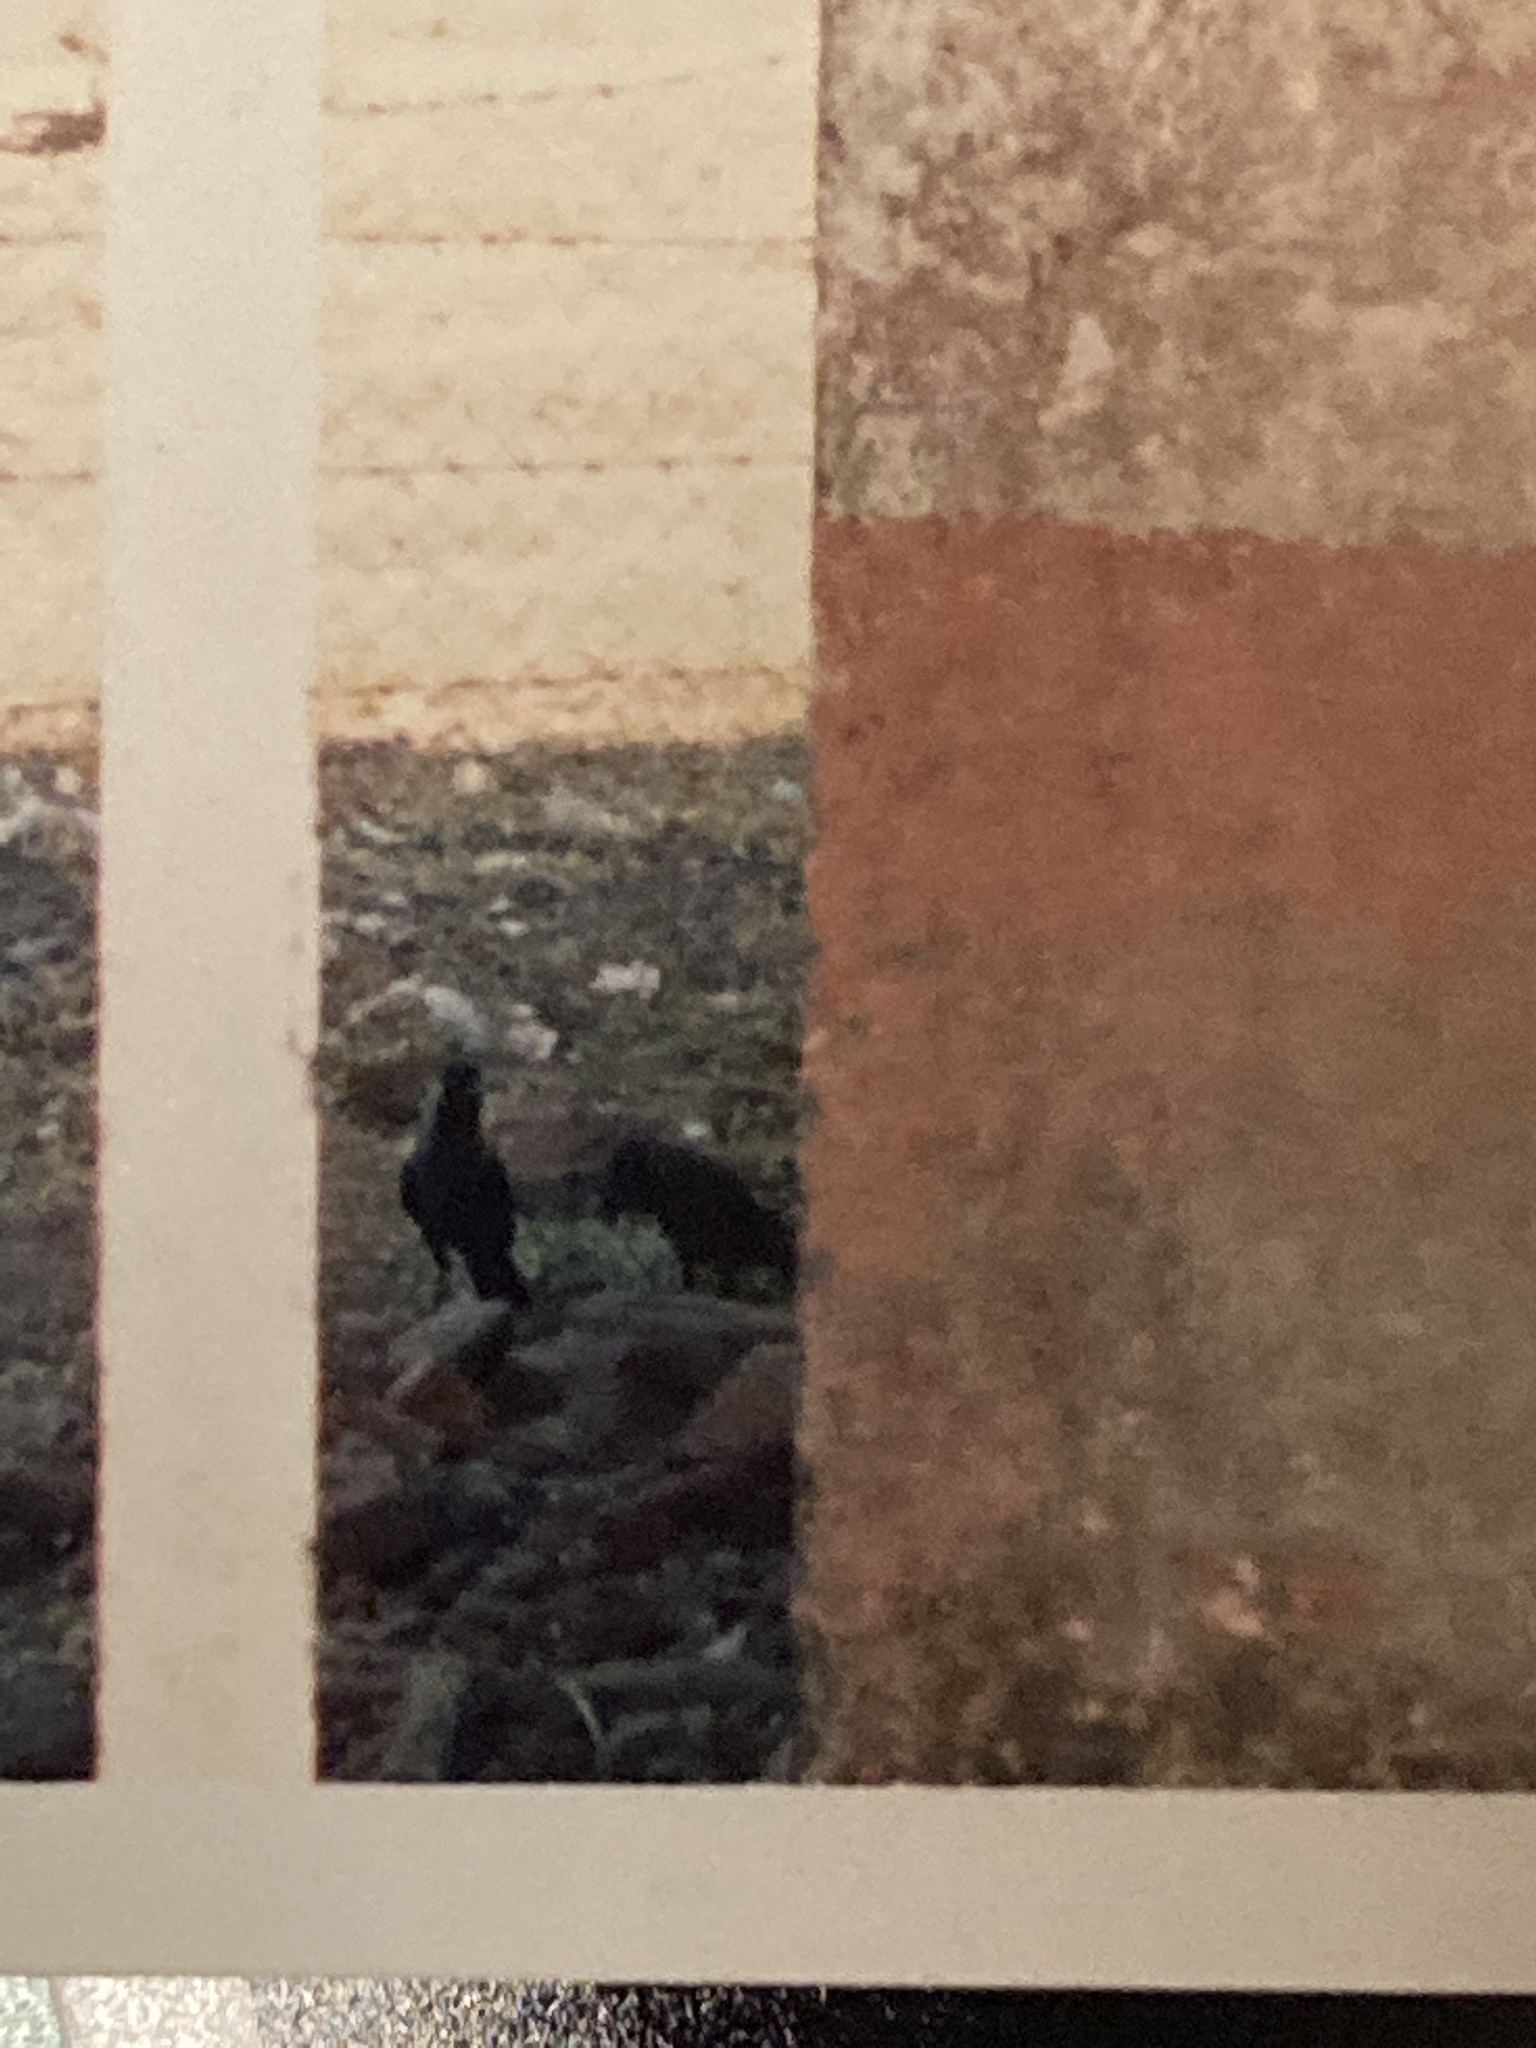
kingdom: Animalia
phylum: Chordata
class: Aves
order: Passeriformes
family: Corvidae
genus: Corvus
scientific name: Corvus splendens
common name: House crow
